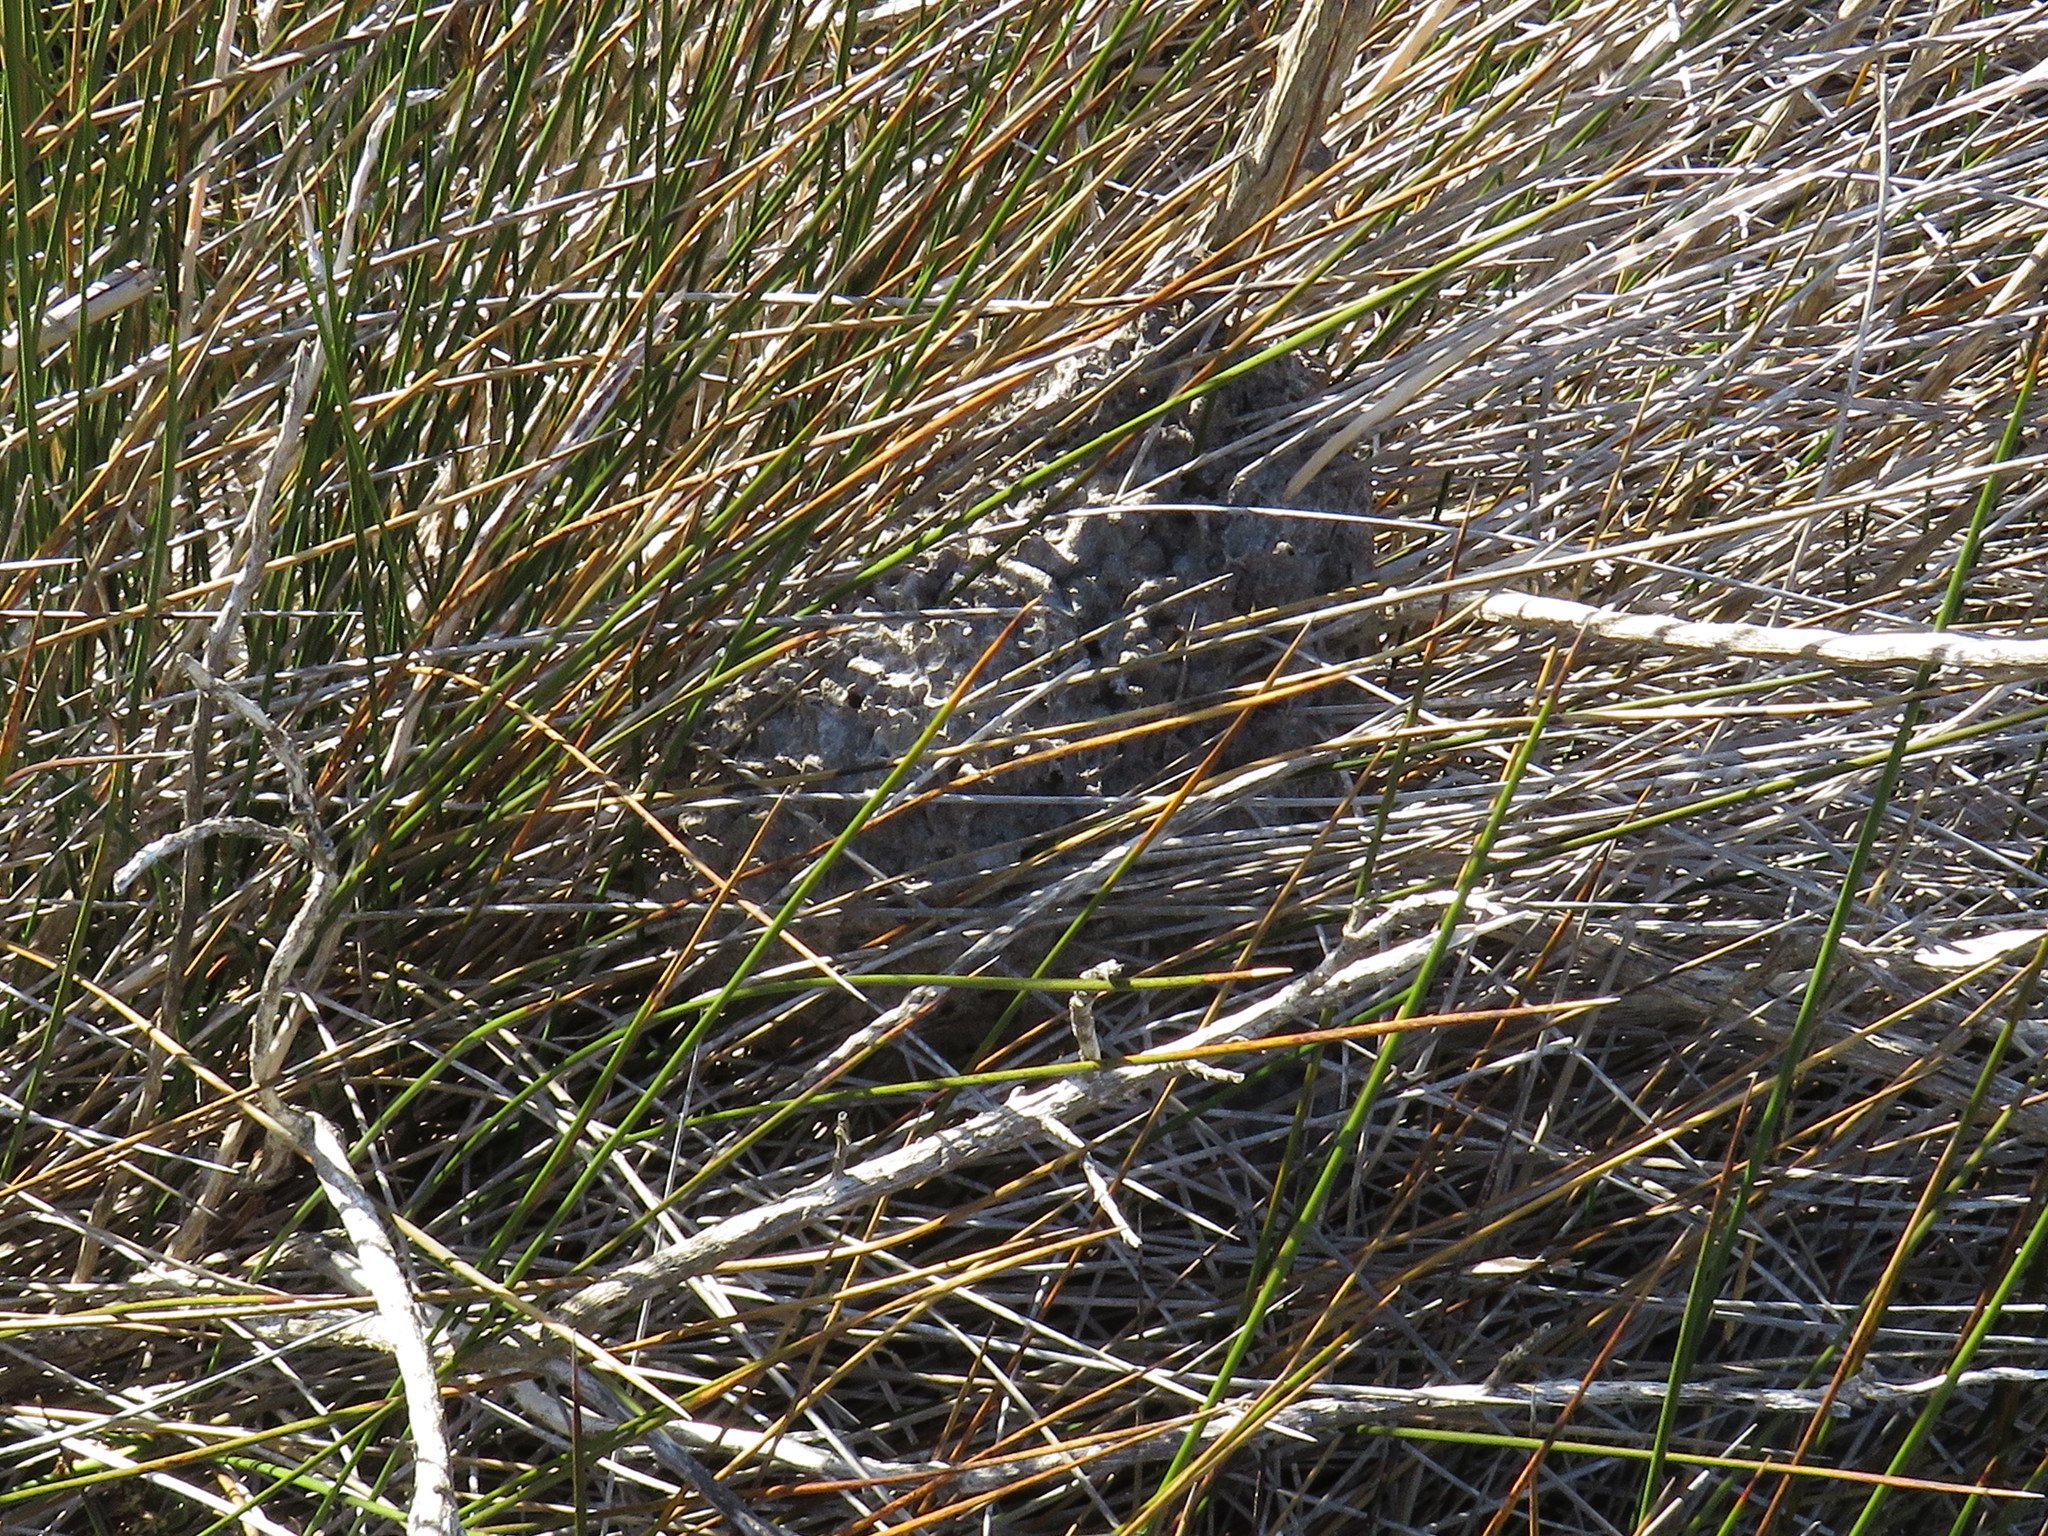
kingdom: Animalia
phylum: Arthropoda
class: Insecta
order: Hymenoptera
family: Formicidae
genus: Crematogaster
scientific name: Crematogaster peringueyi
